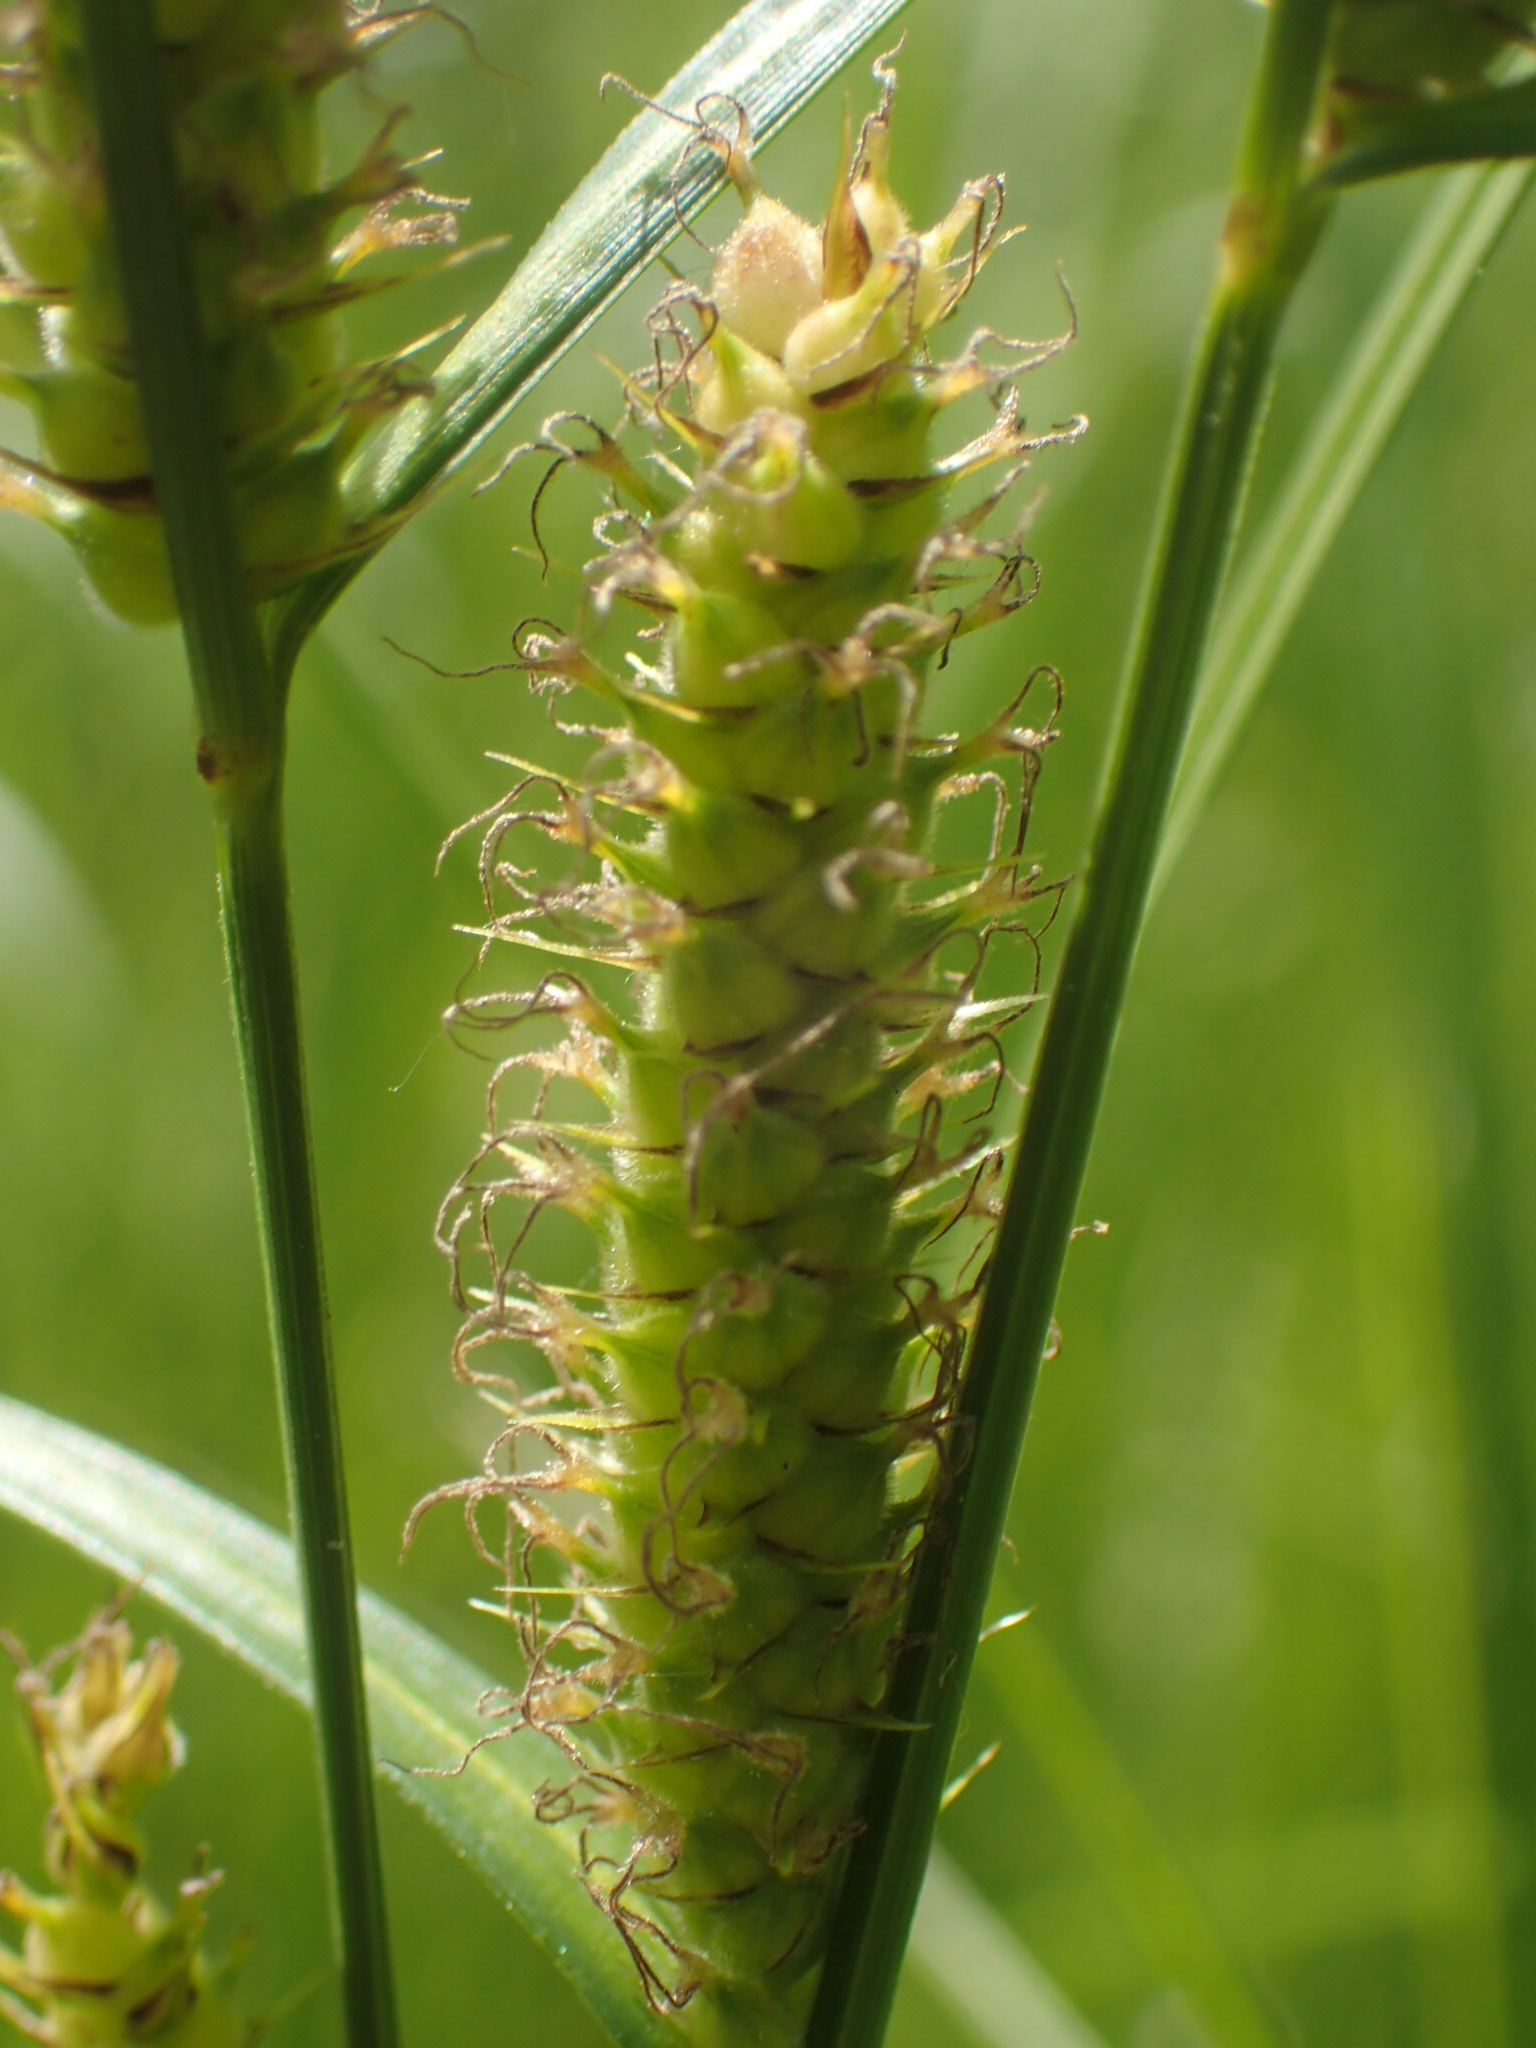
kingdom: Plantae
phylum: Tracheophyta
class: Liliopsida
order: Poales
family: Cyperaceae
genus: Carex
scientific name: Carex pellita
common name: Woolly sedge
